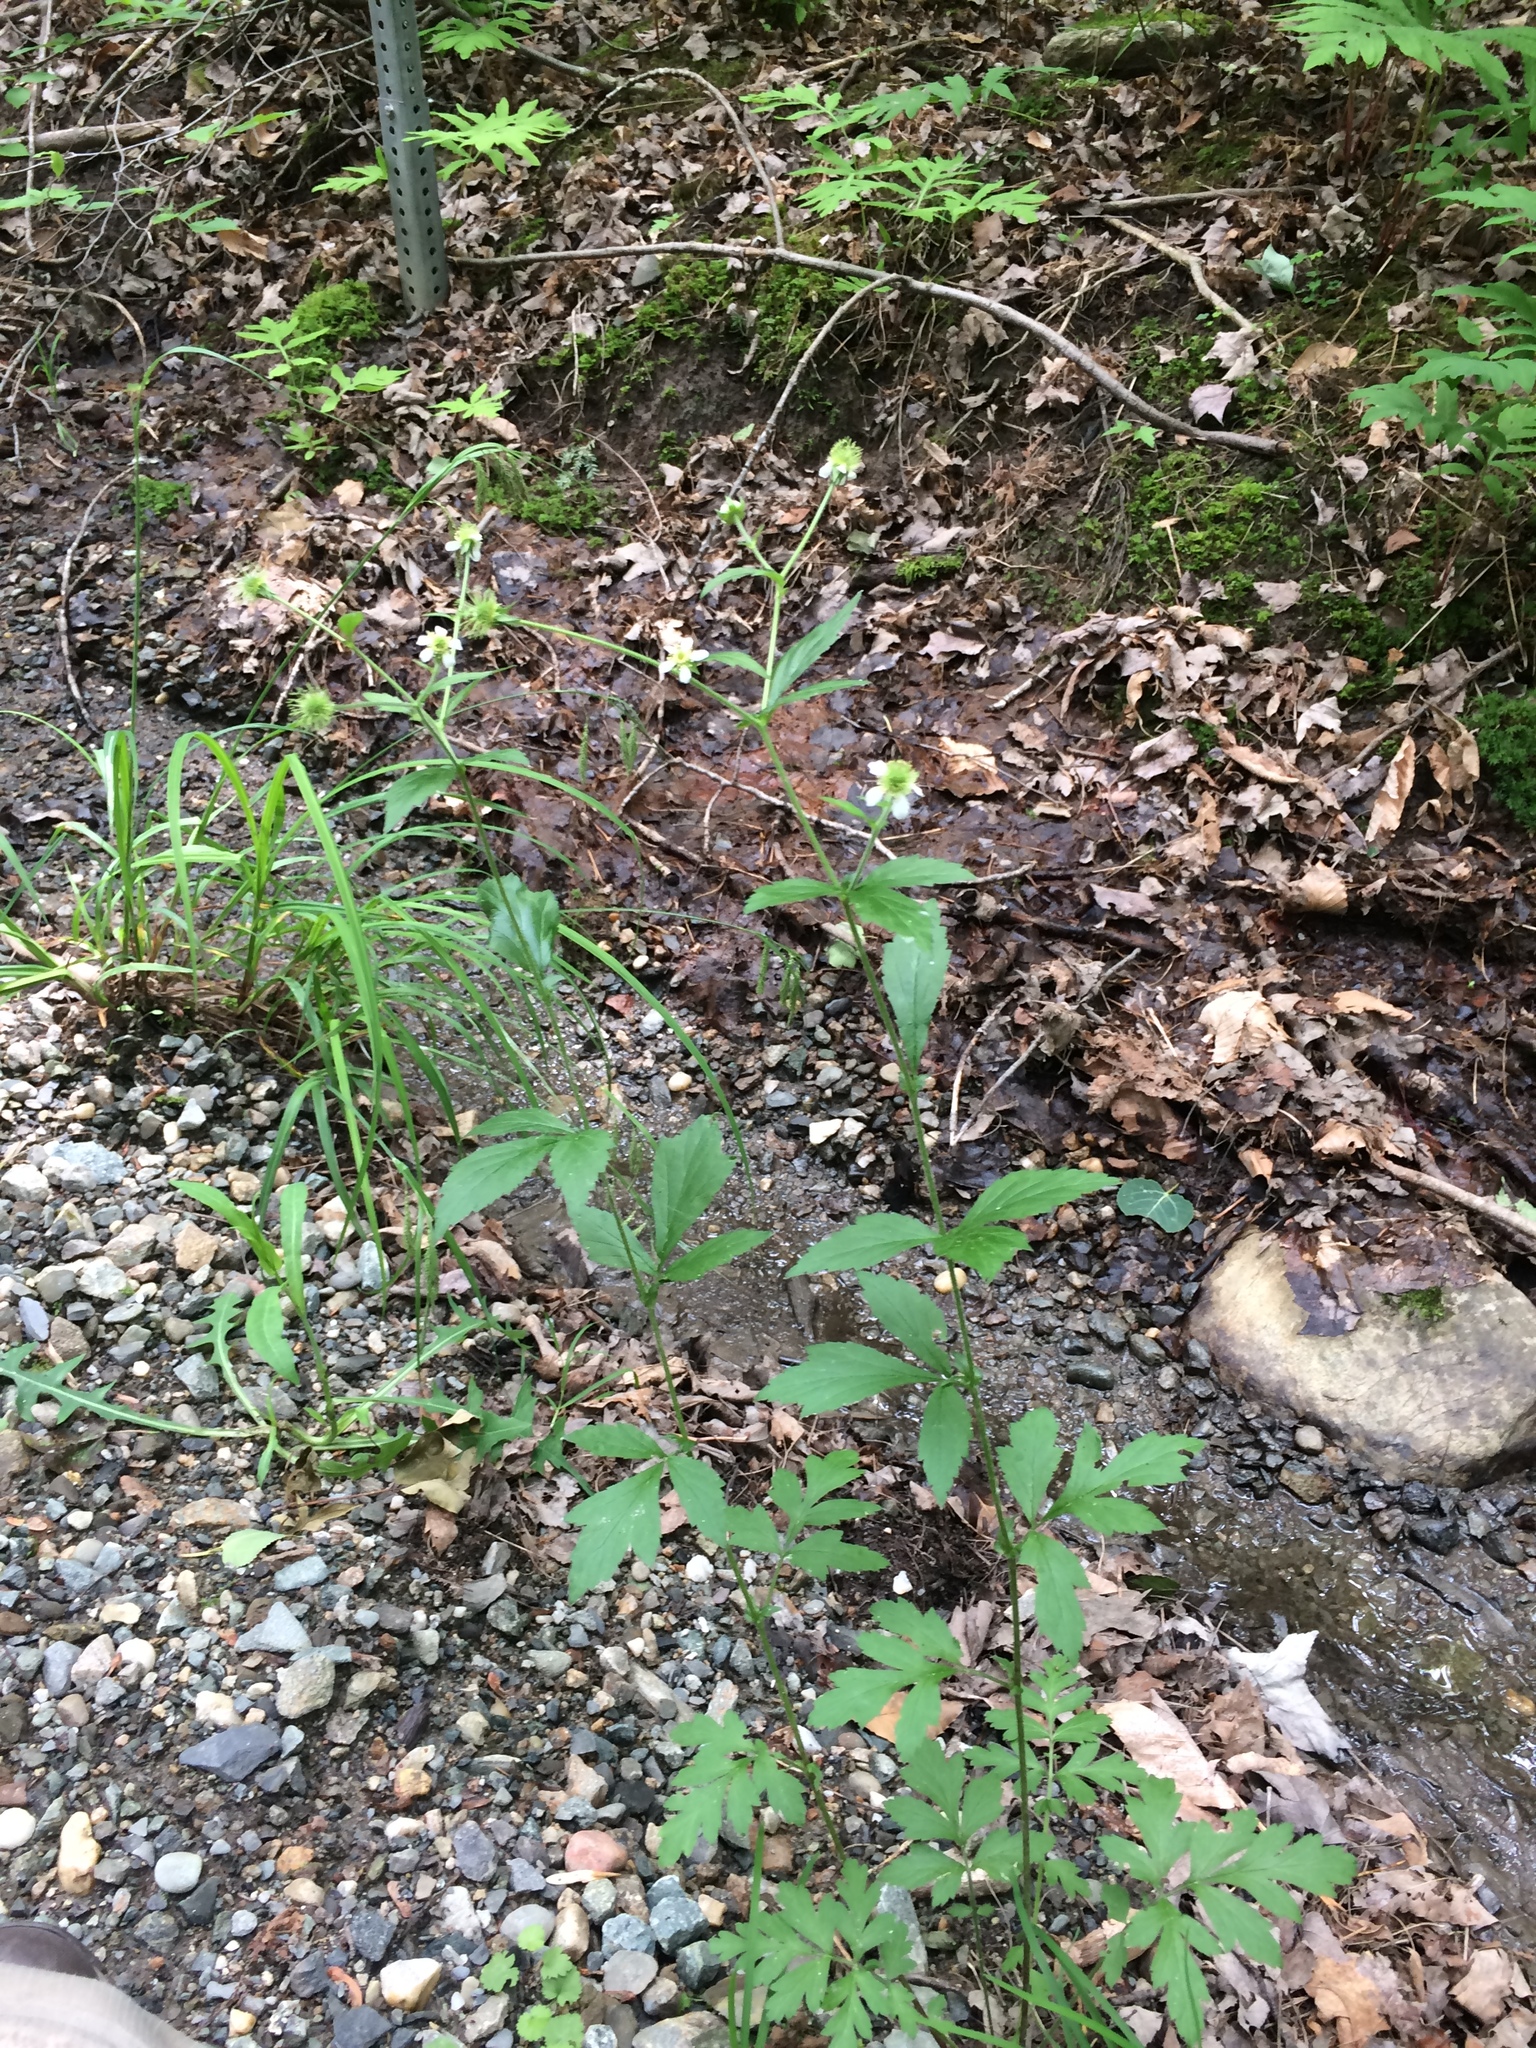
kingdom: Plantae
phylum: Tracheophyta
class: Magnoliopsida
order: Rosales
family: Rosaceae
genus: Geum
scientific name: Geum canadense
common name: White avens
